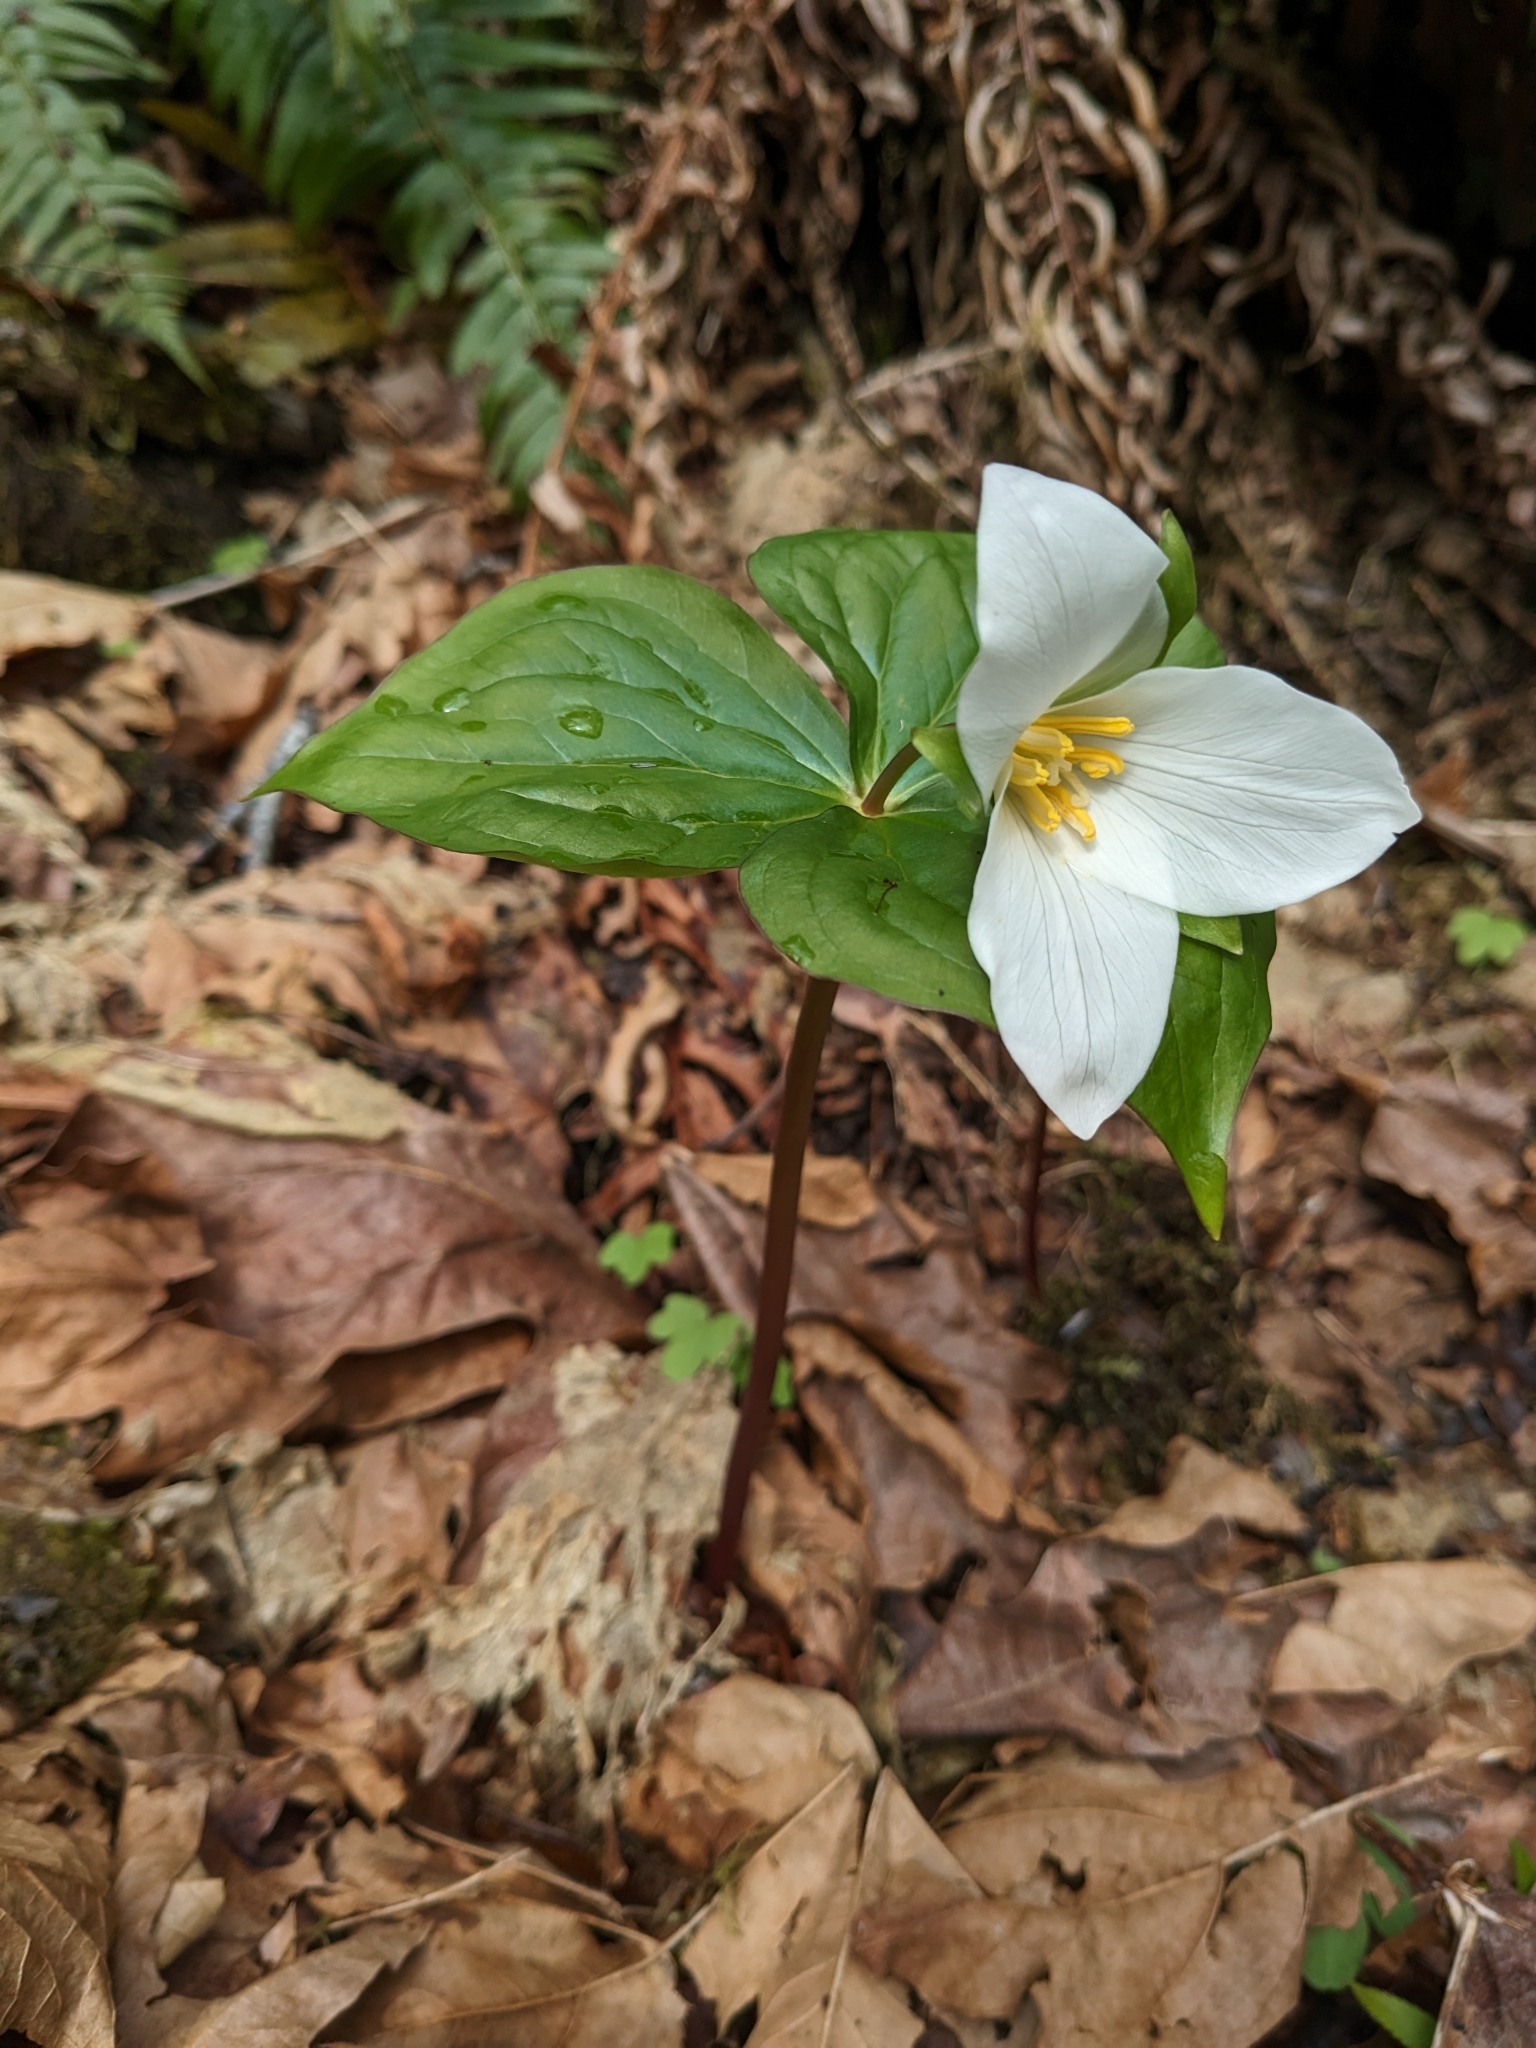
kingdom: Plantae
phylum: Tracheophyta
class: Liliopsida
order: Liliales
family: Melanthiaceae
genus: Trillium
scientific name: Trillium ovatum
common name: Pacific trillium
